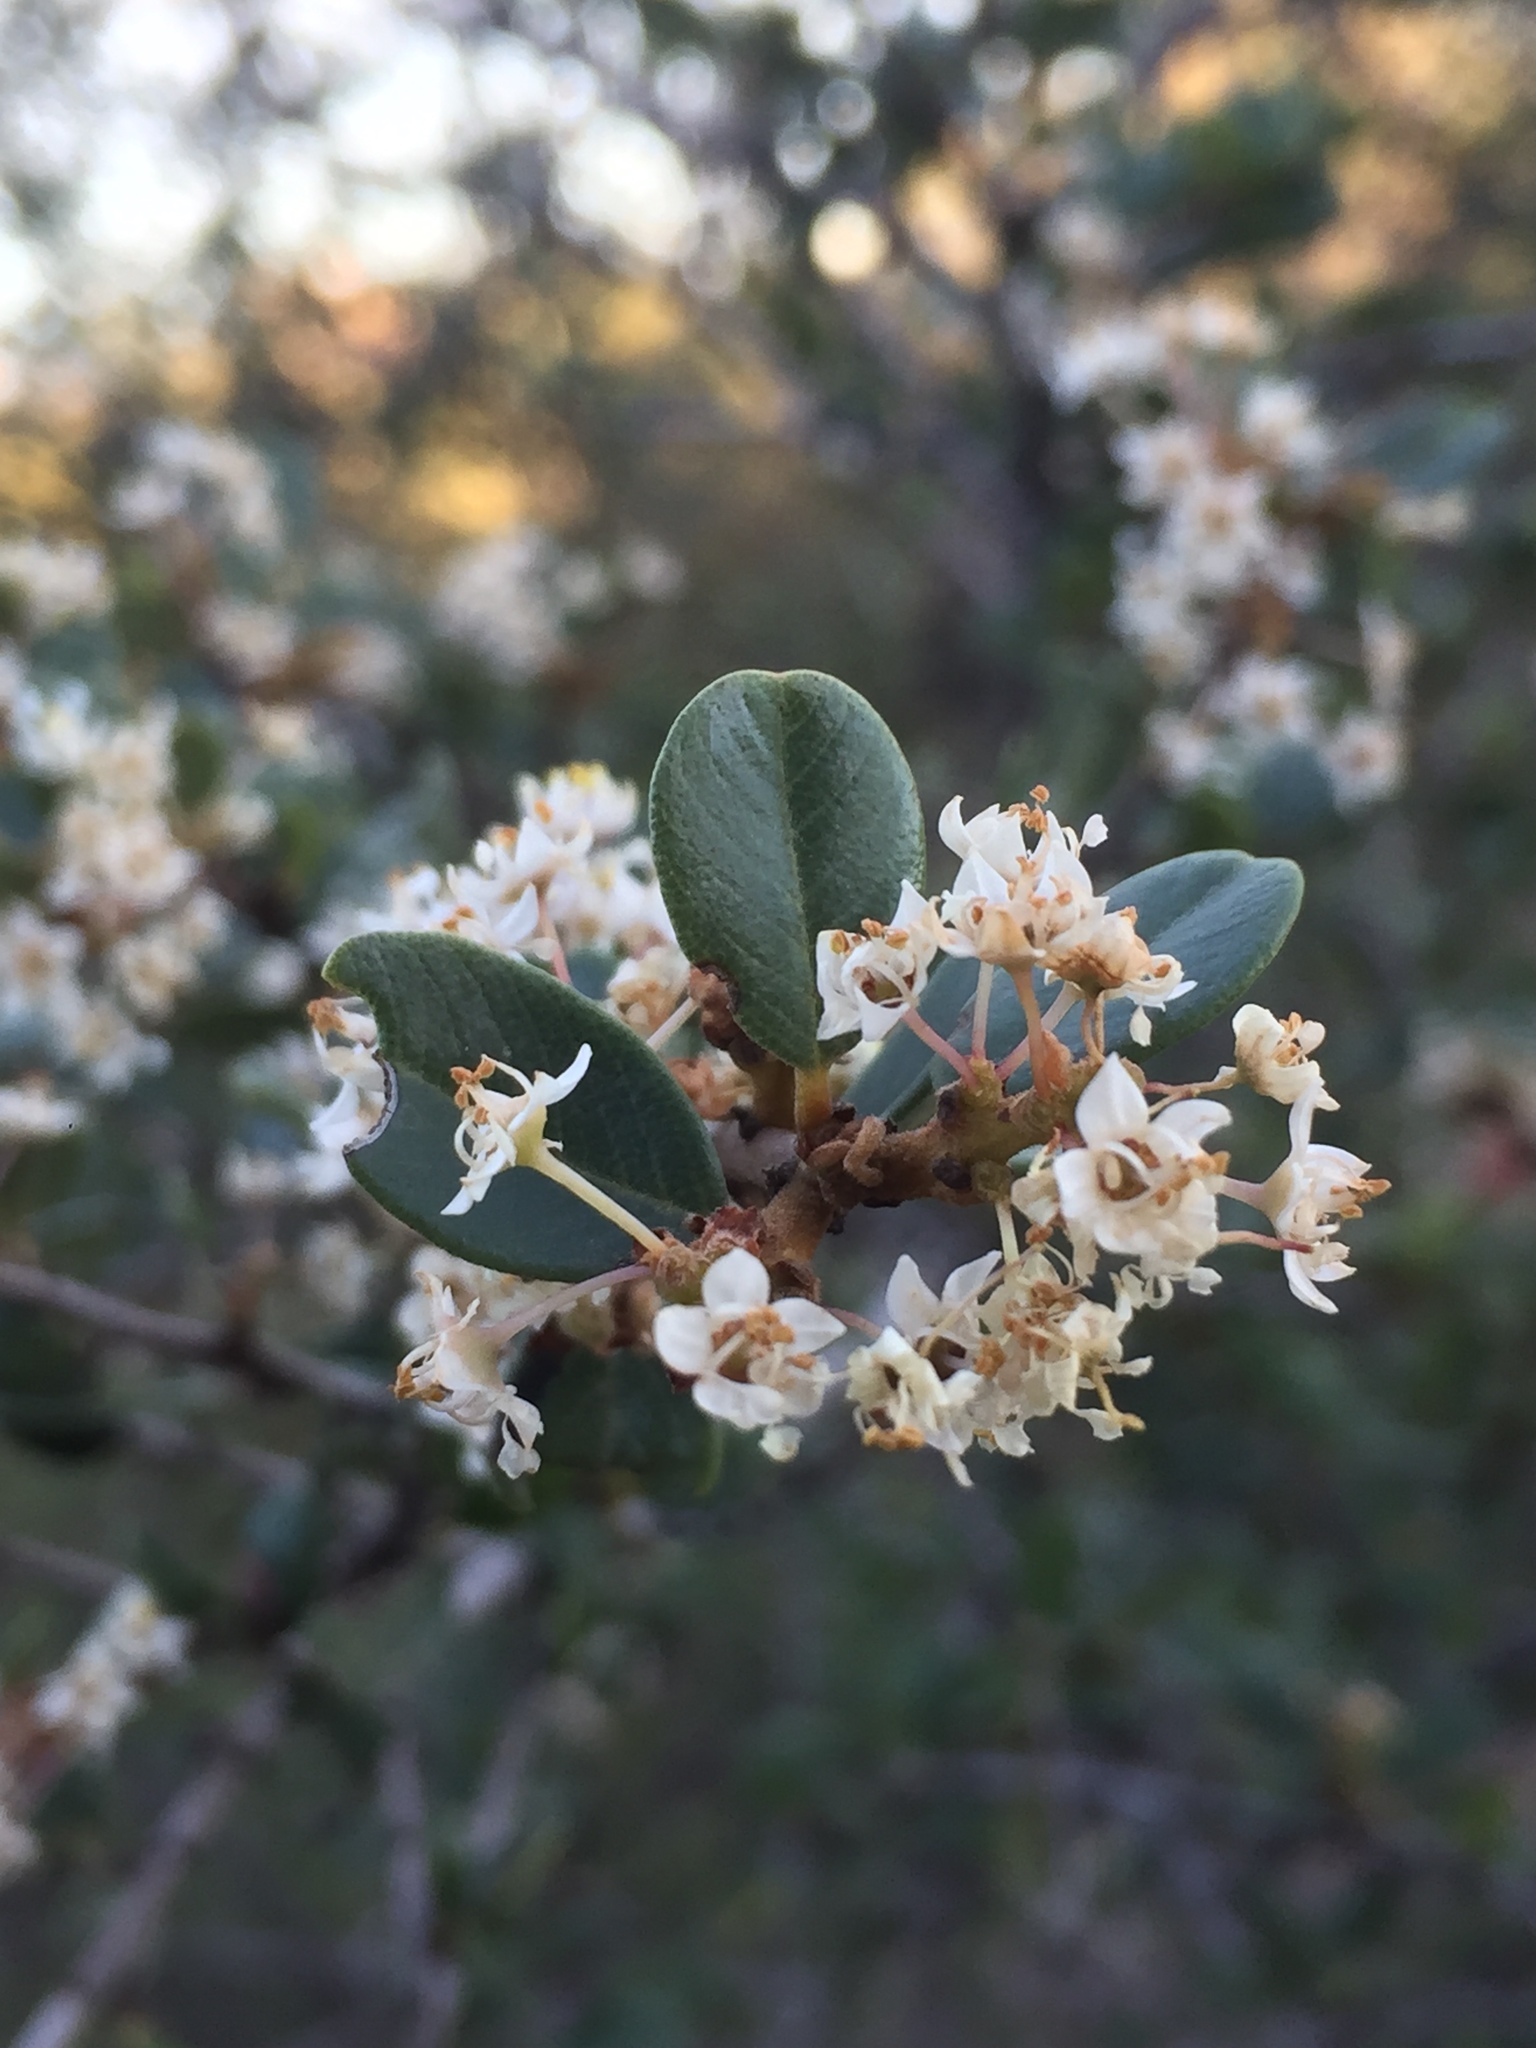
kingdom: Plantae
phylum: Tracheophyta
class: Magnoliopsida
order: Rosales
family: Rhamnaceae
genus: Ceanothus
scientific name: Ceanothus megacarpus
